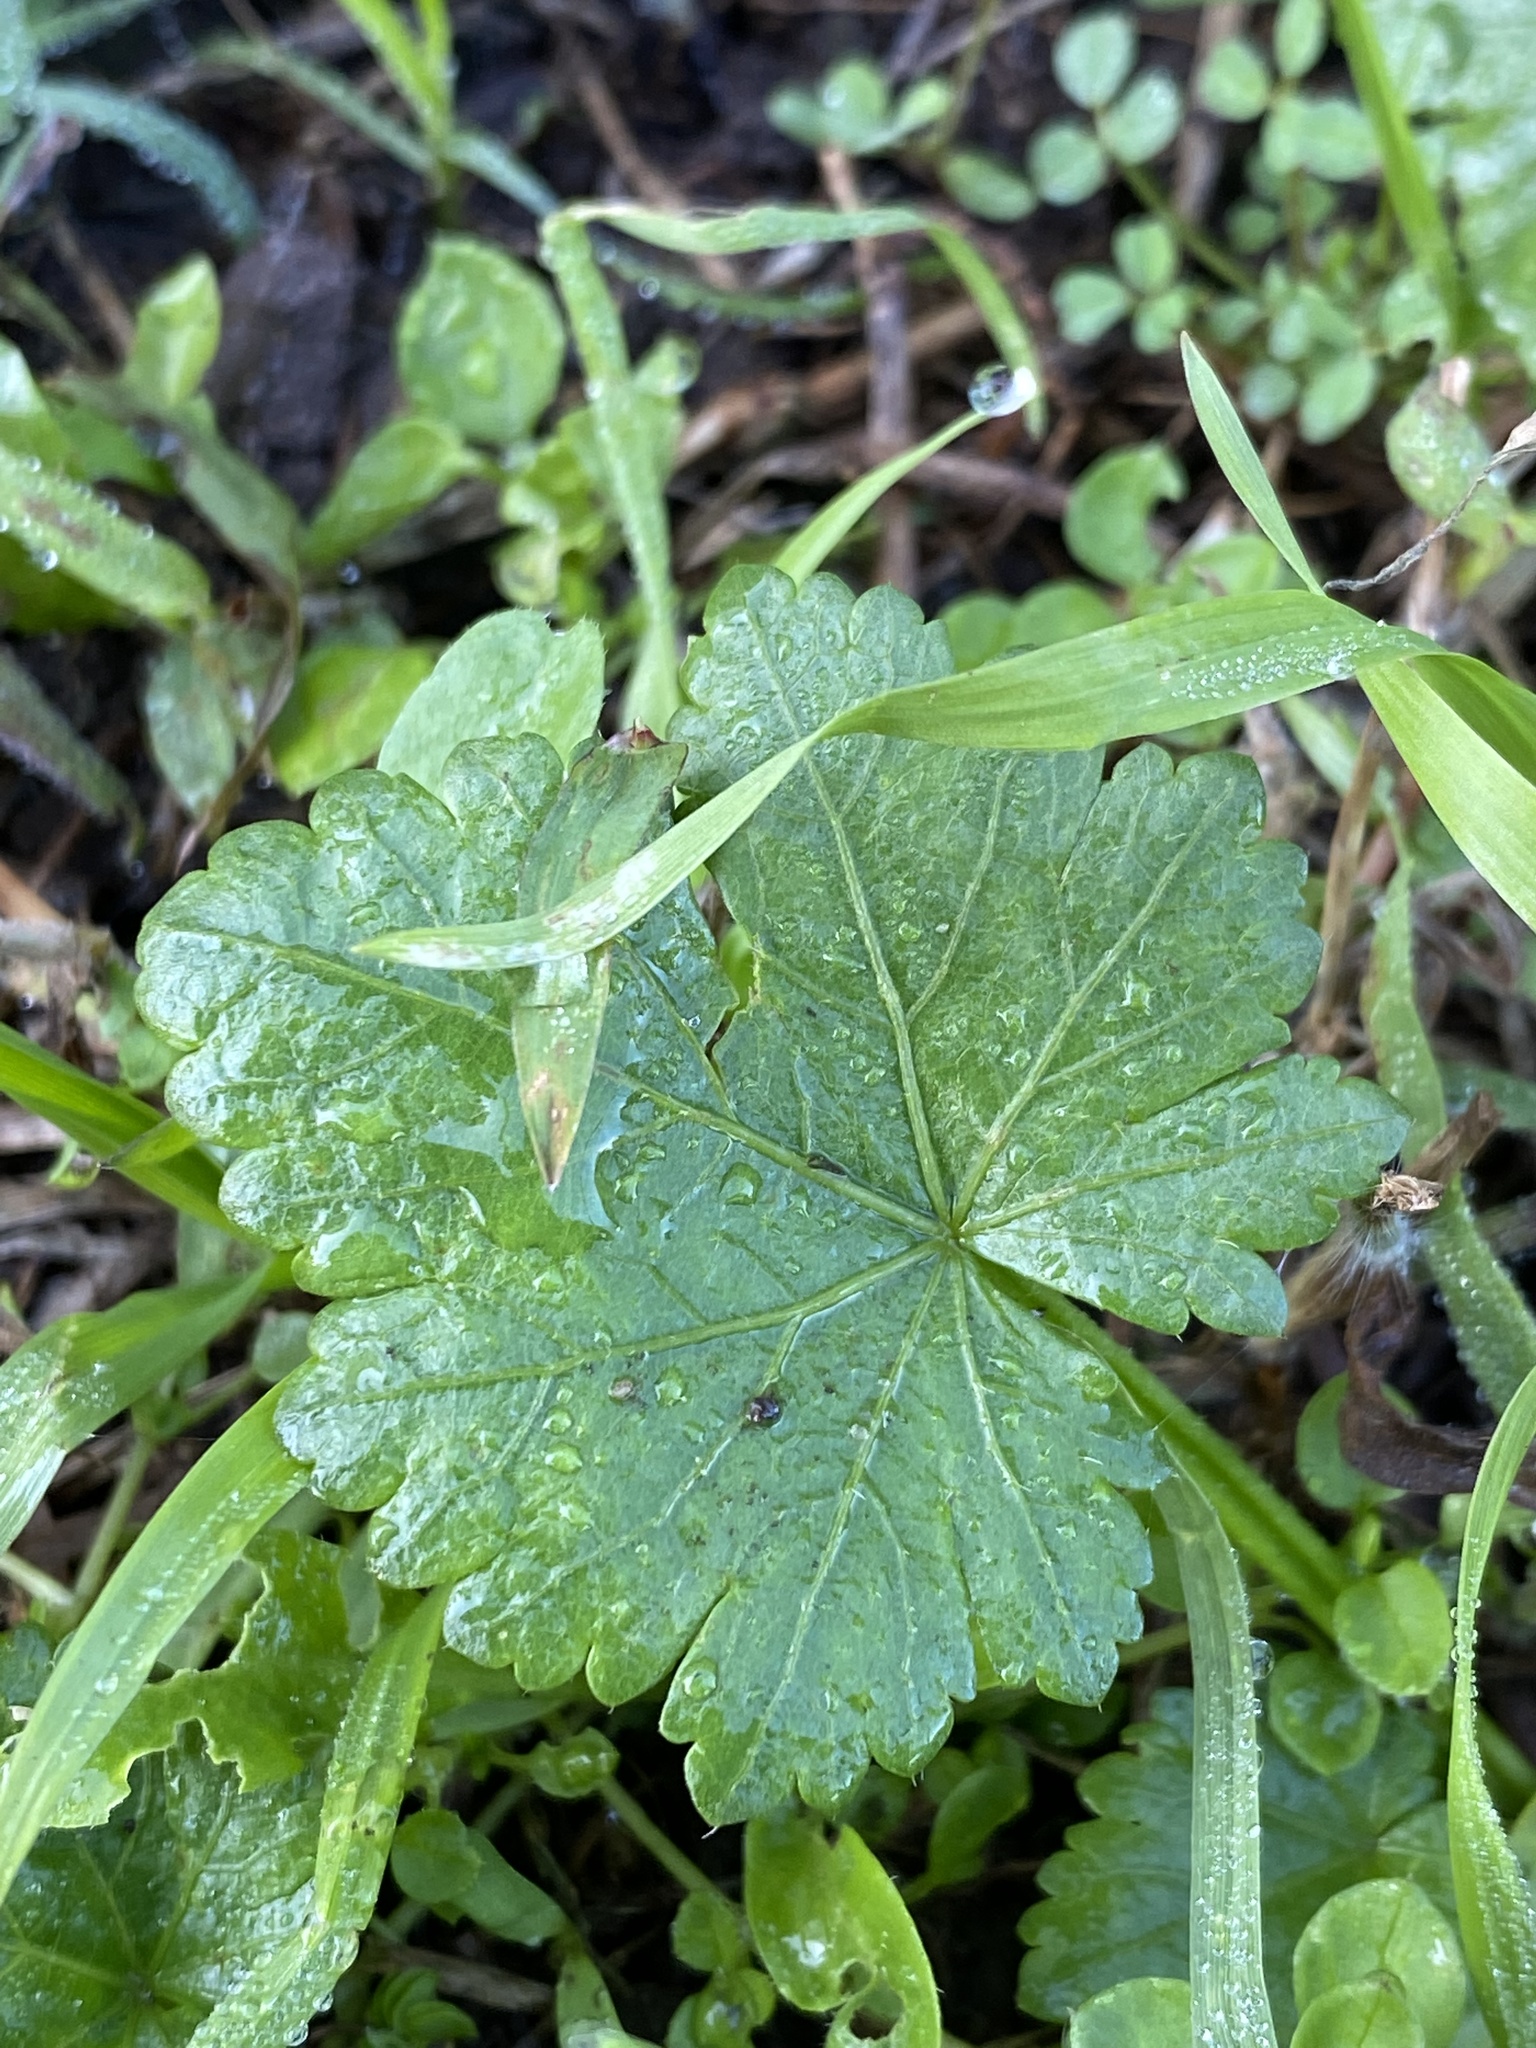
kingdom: Plantae
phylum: Tracheophyta
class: Magnoliopsida
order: Malvales
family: Malvaceae
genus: Modiola
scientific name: Modiola caroliniana
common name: Carolina bristlemallow
